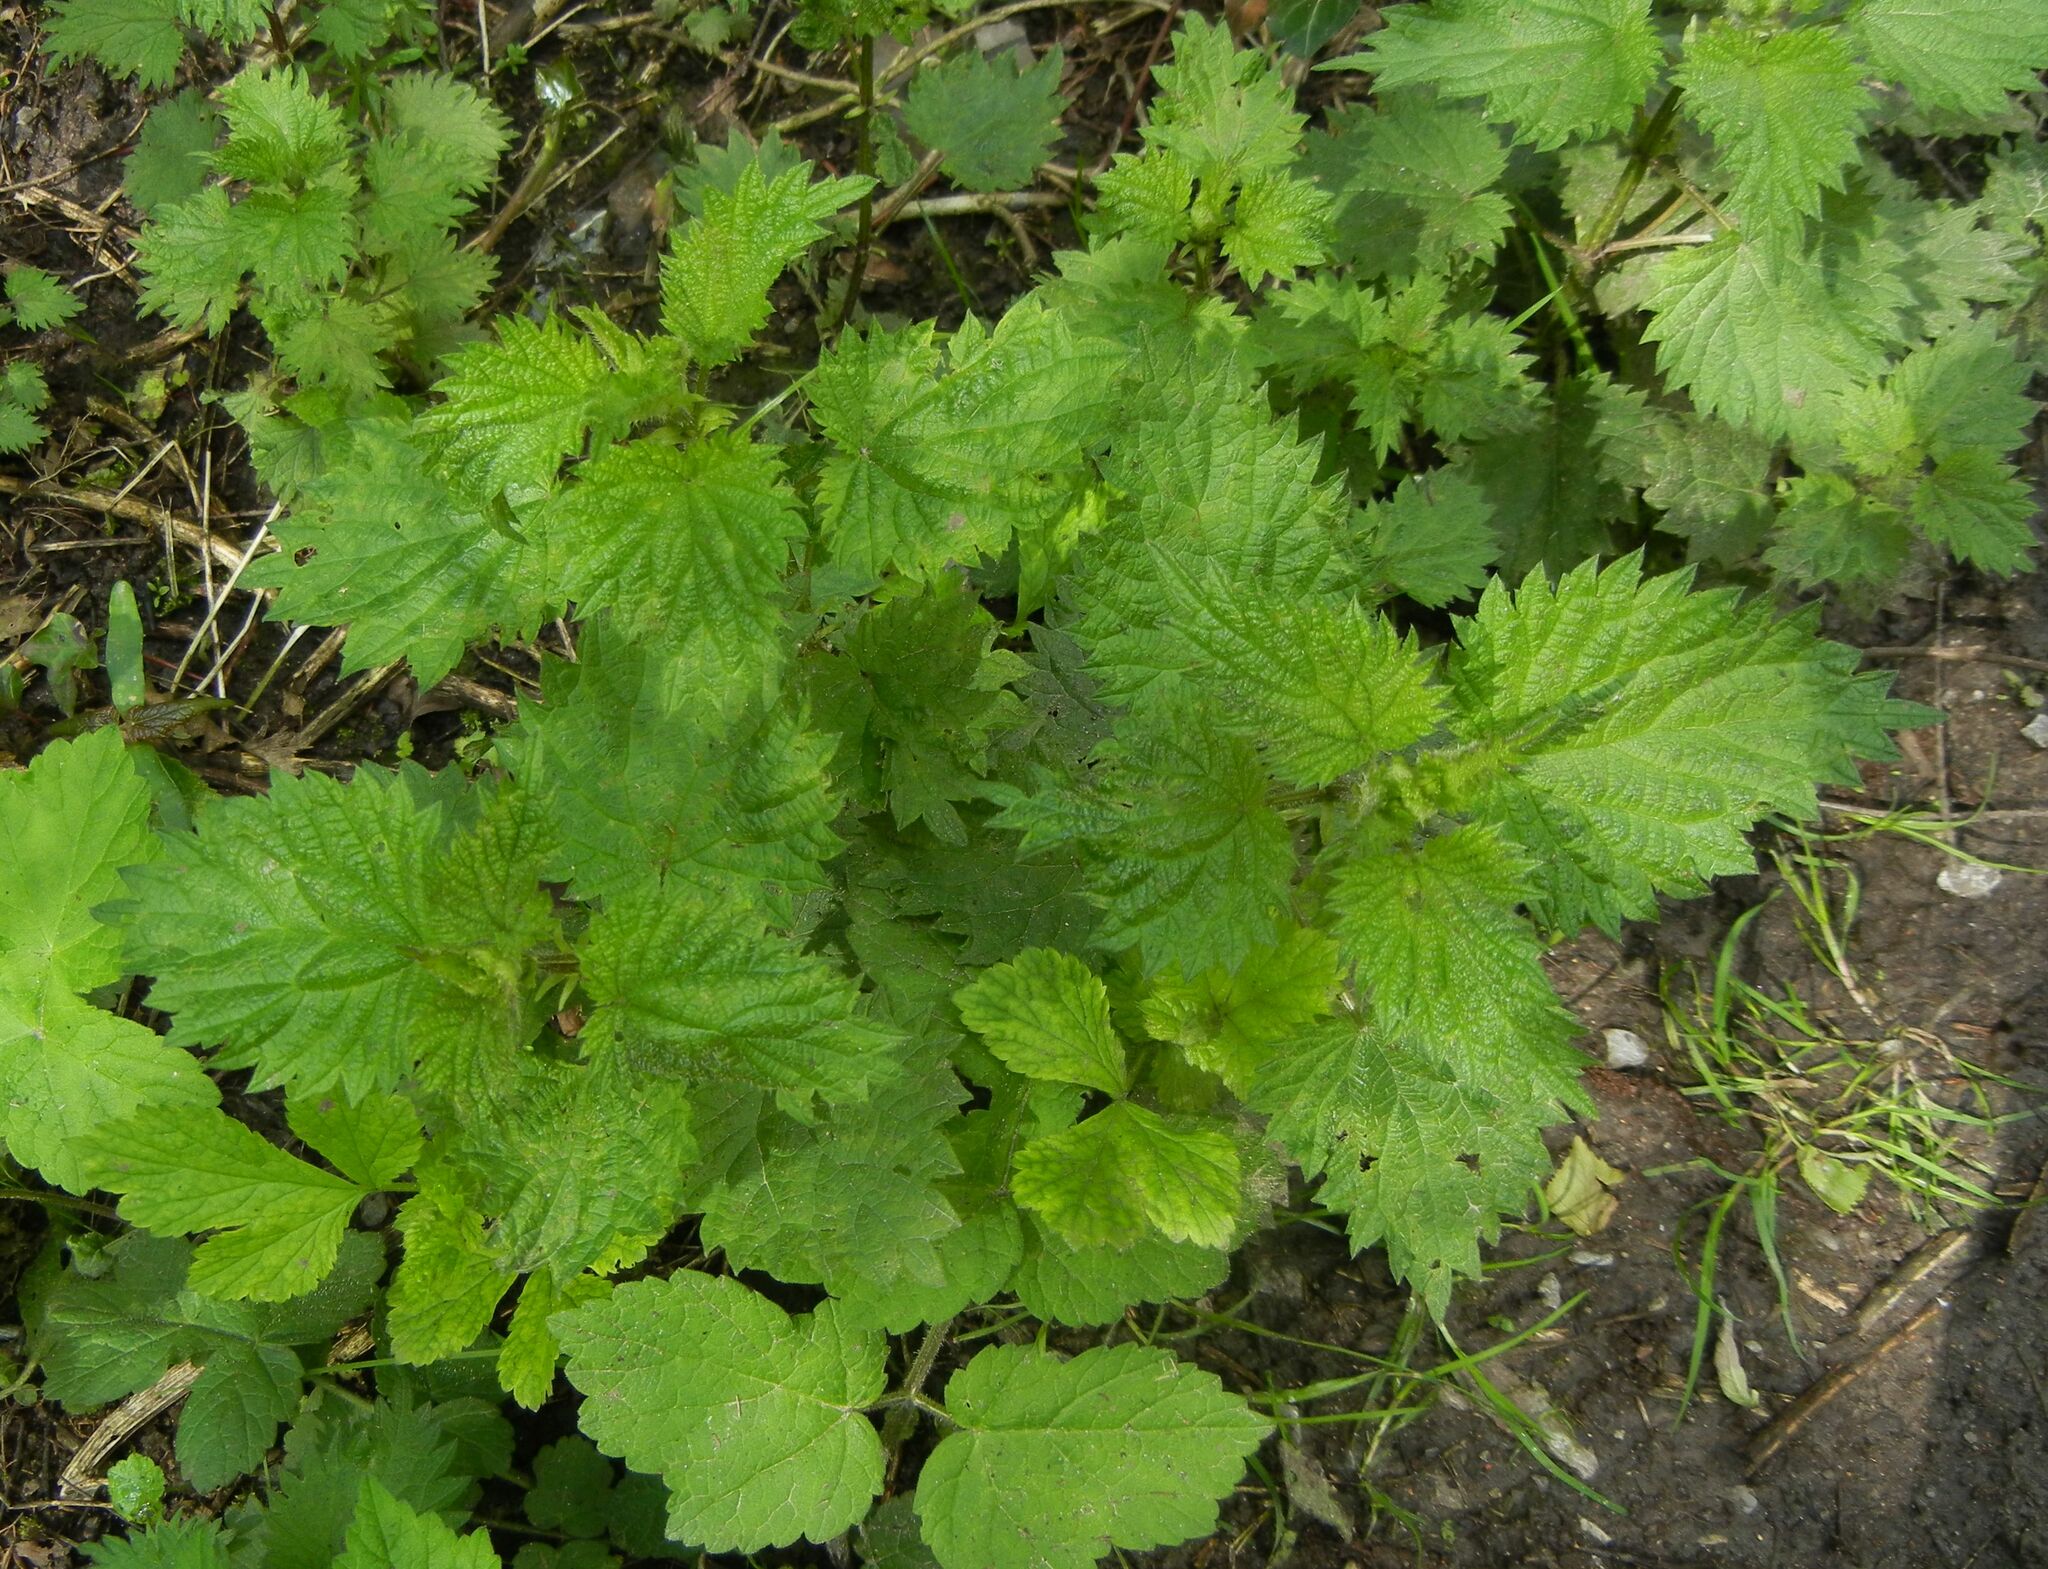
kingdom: Plantae
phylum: Tracheophyta
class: Magnoliopsida
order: Rosales
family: Urticaceae
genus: Urtica
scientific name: Urtica dioica
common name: Common nettle
